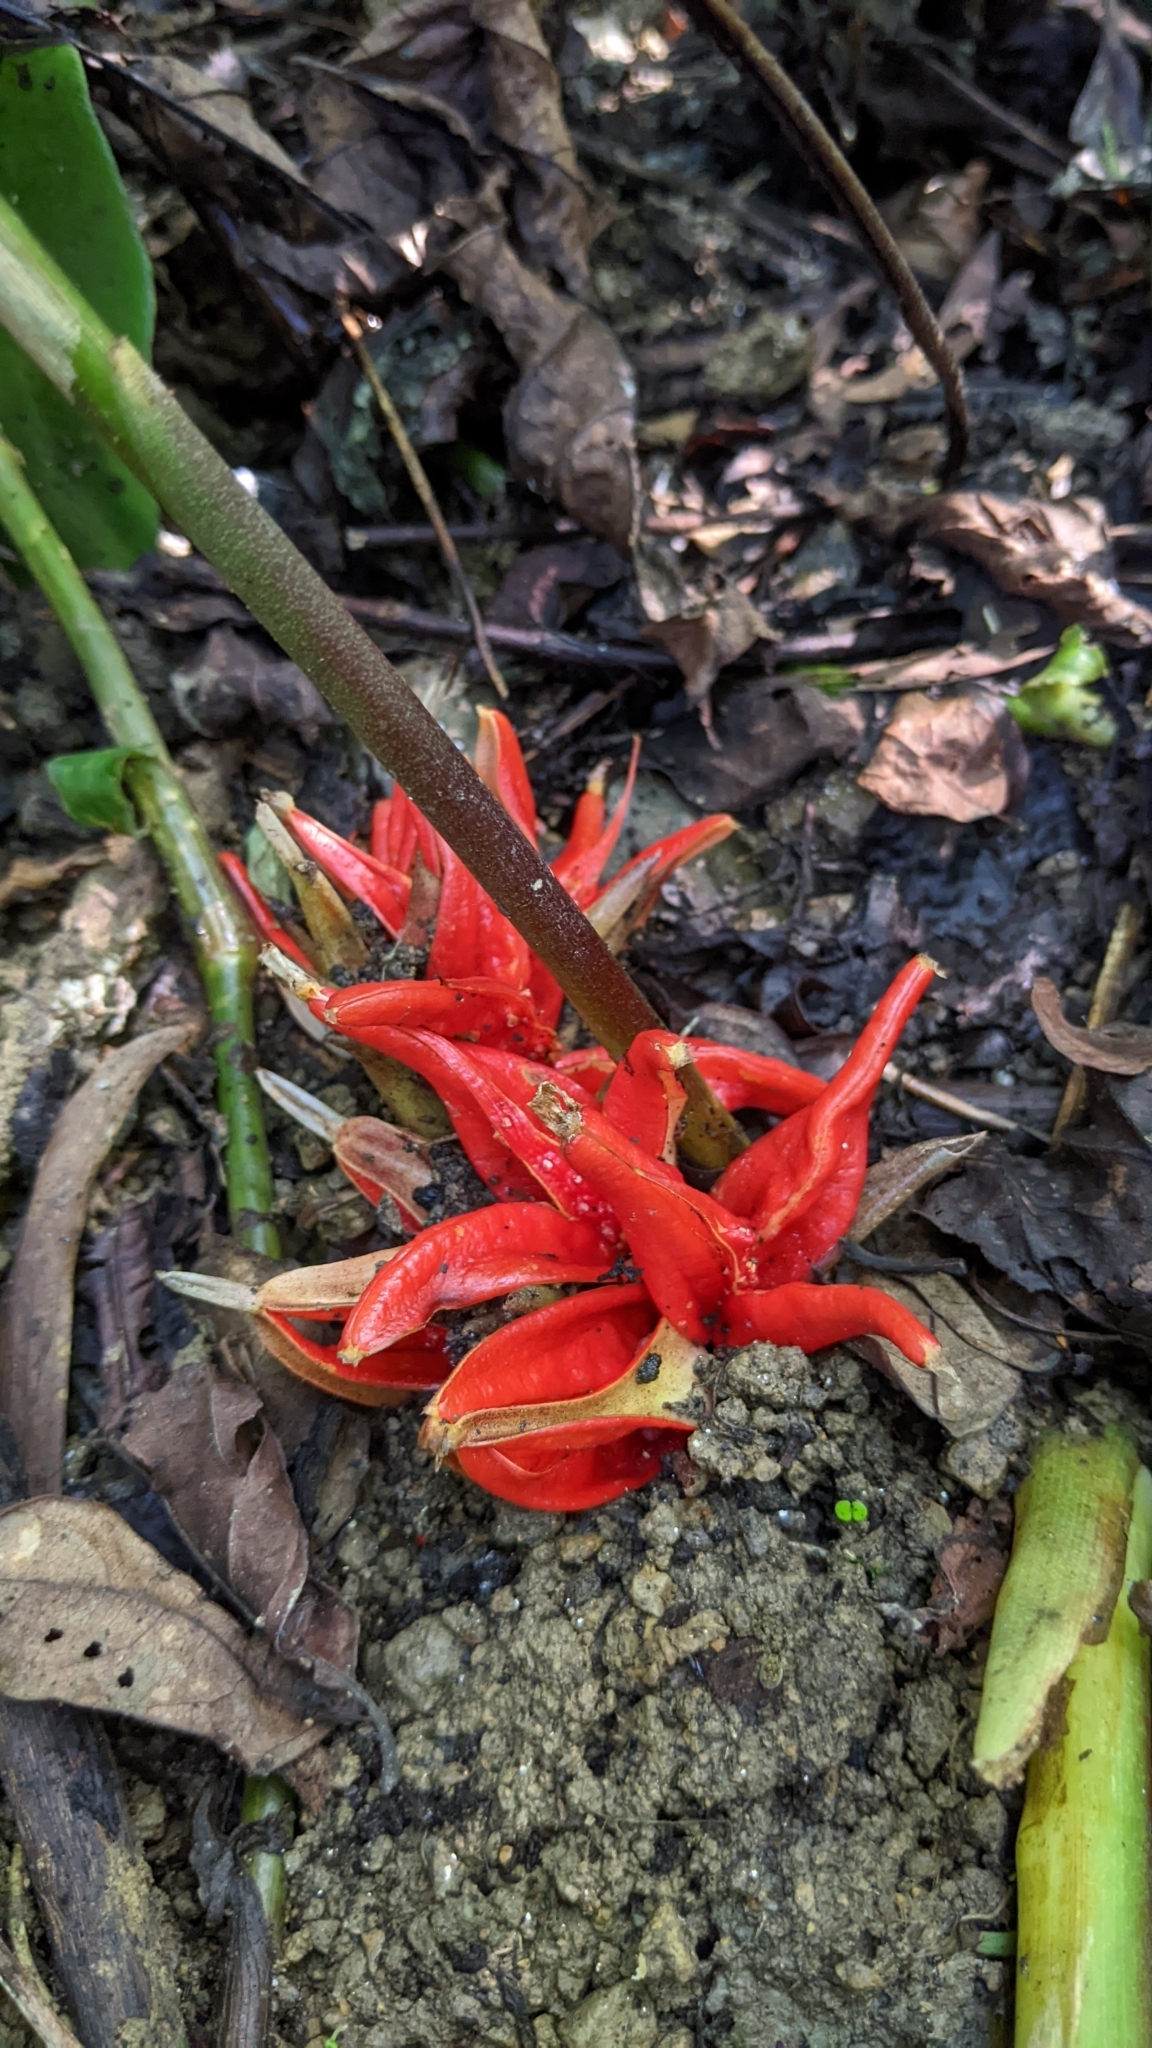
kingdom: Plantae
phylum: Tracheophyta
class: Liliopsida
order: Zingiberales
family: Zingiberaceae
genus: Zingiber
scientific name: Zingiber kawagoii
